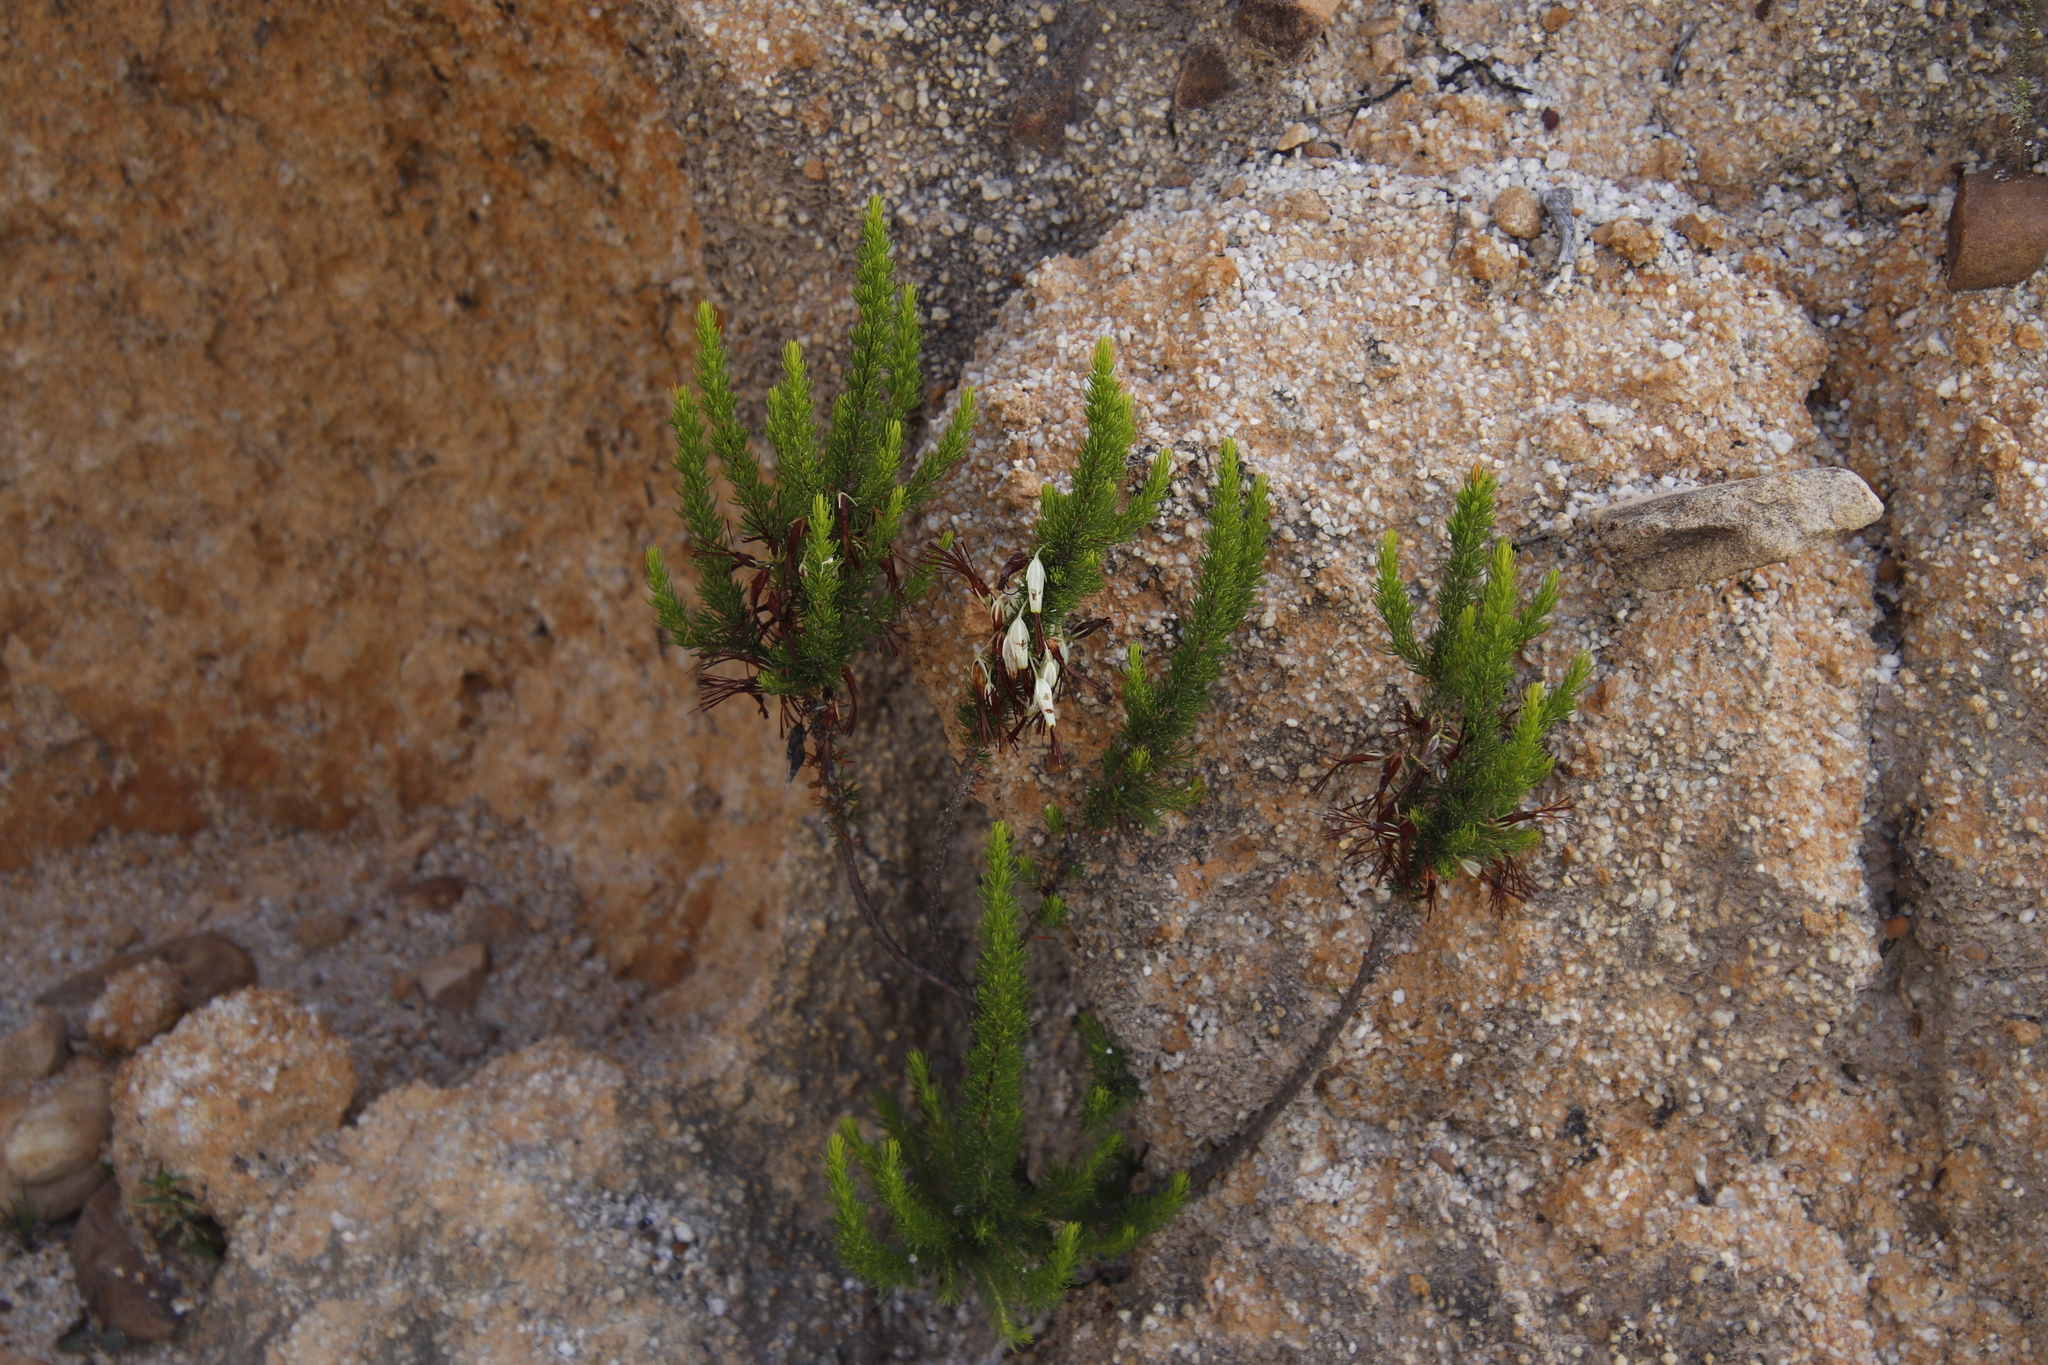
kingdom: Plantae
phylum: Tracheophyta
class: Magnoliopsida
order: Ericales
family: Ericaceae
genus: Erica
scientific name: Erica plukenetii
